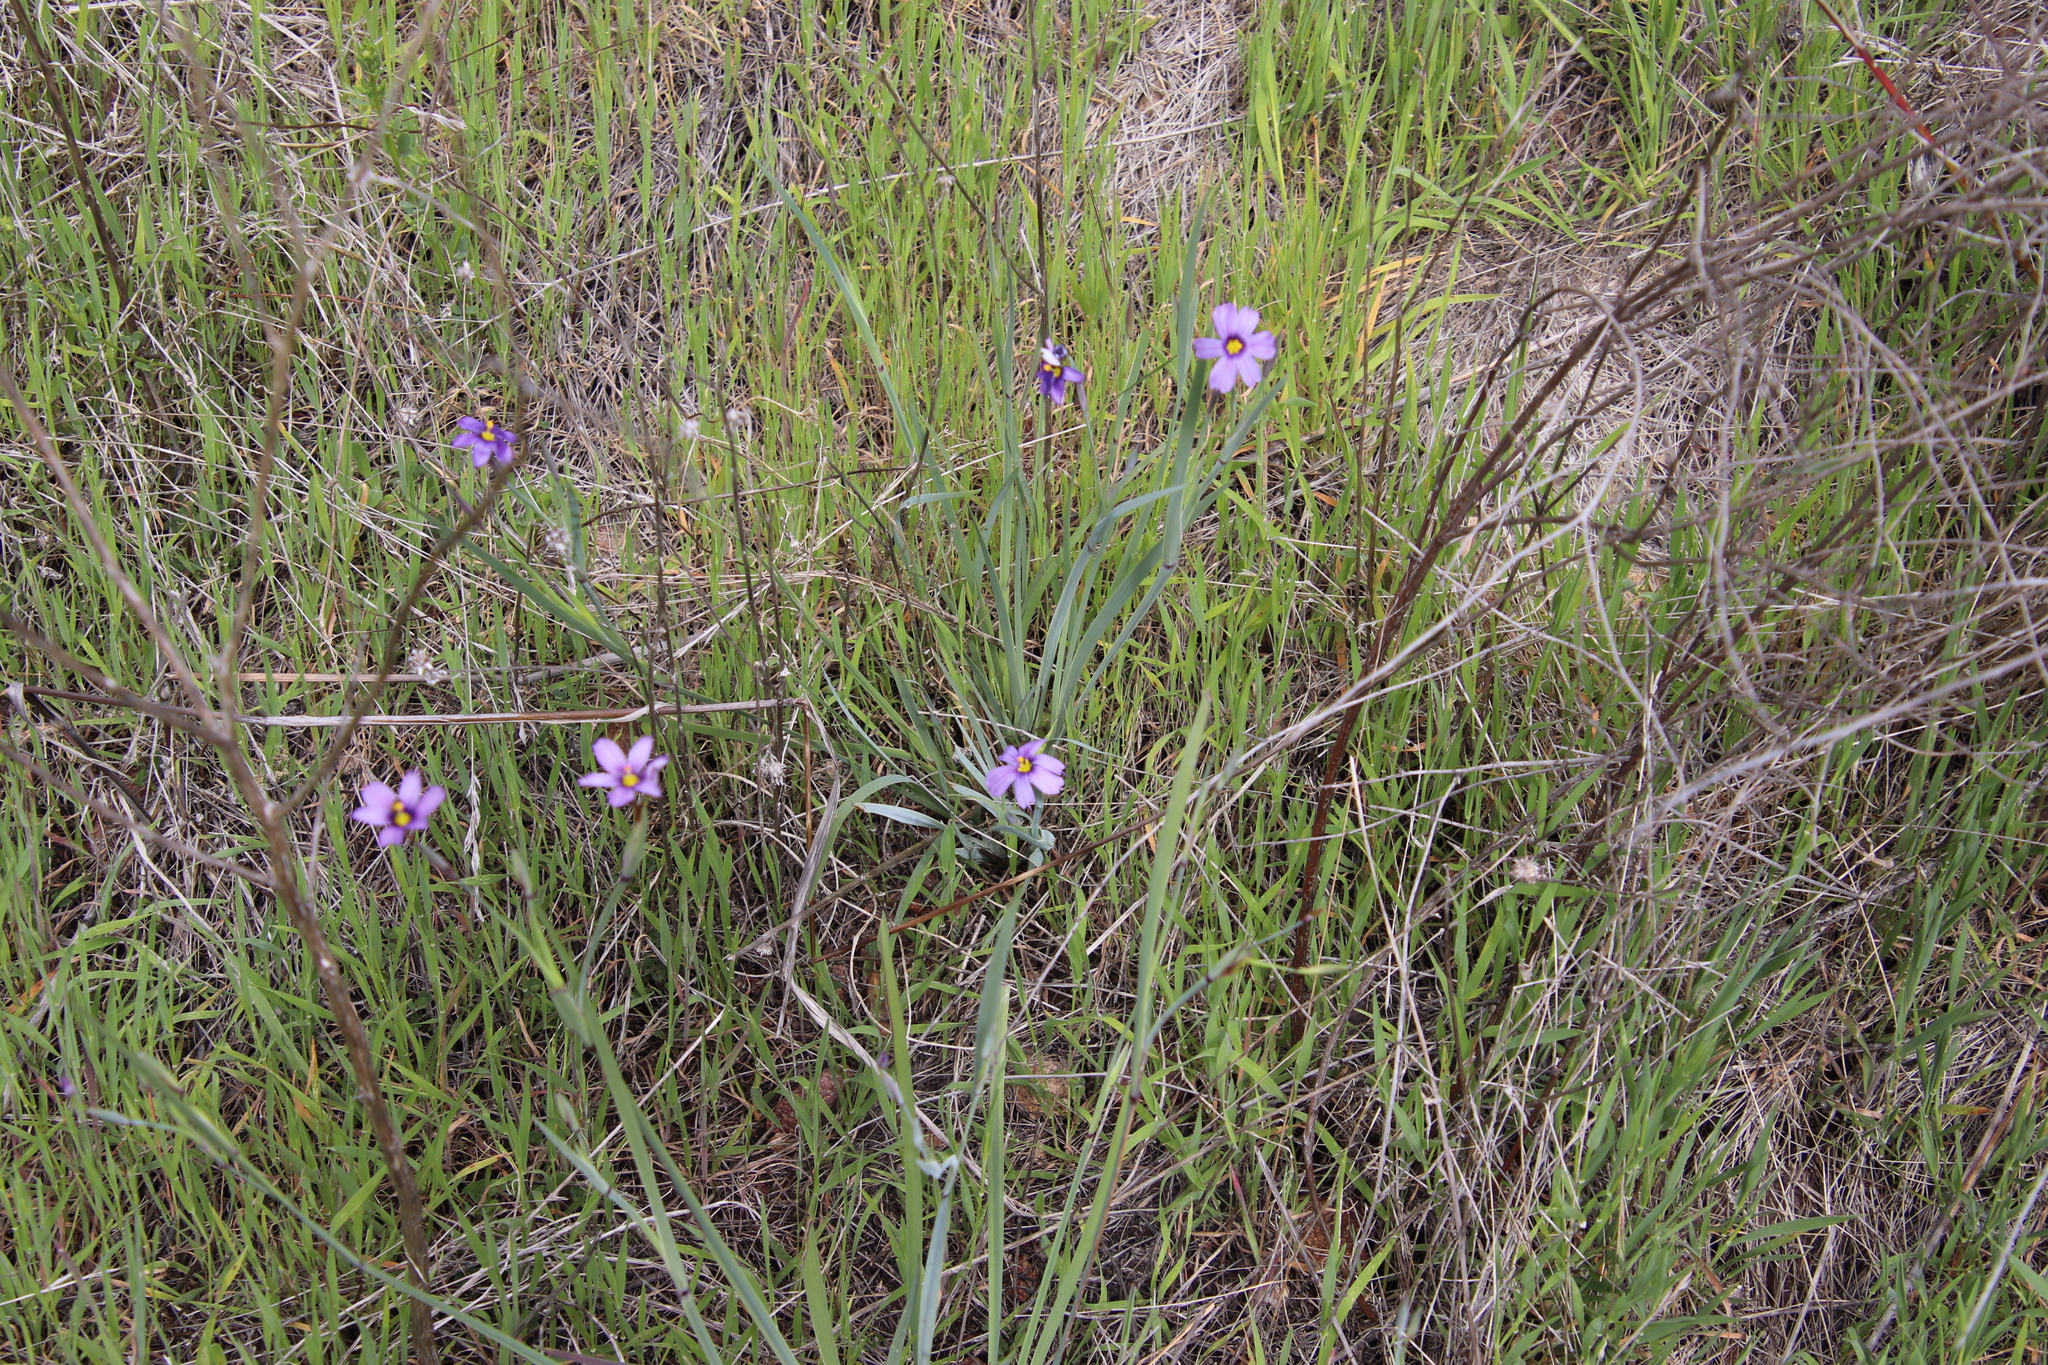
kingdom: Plantae
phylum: Tracheophyta
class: Liliopsida
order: Asparagales
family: Iridaceae
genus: Sisyrinchium
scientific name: Sisyrinchium bellum
